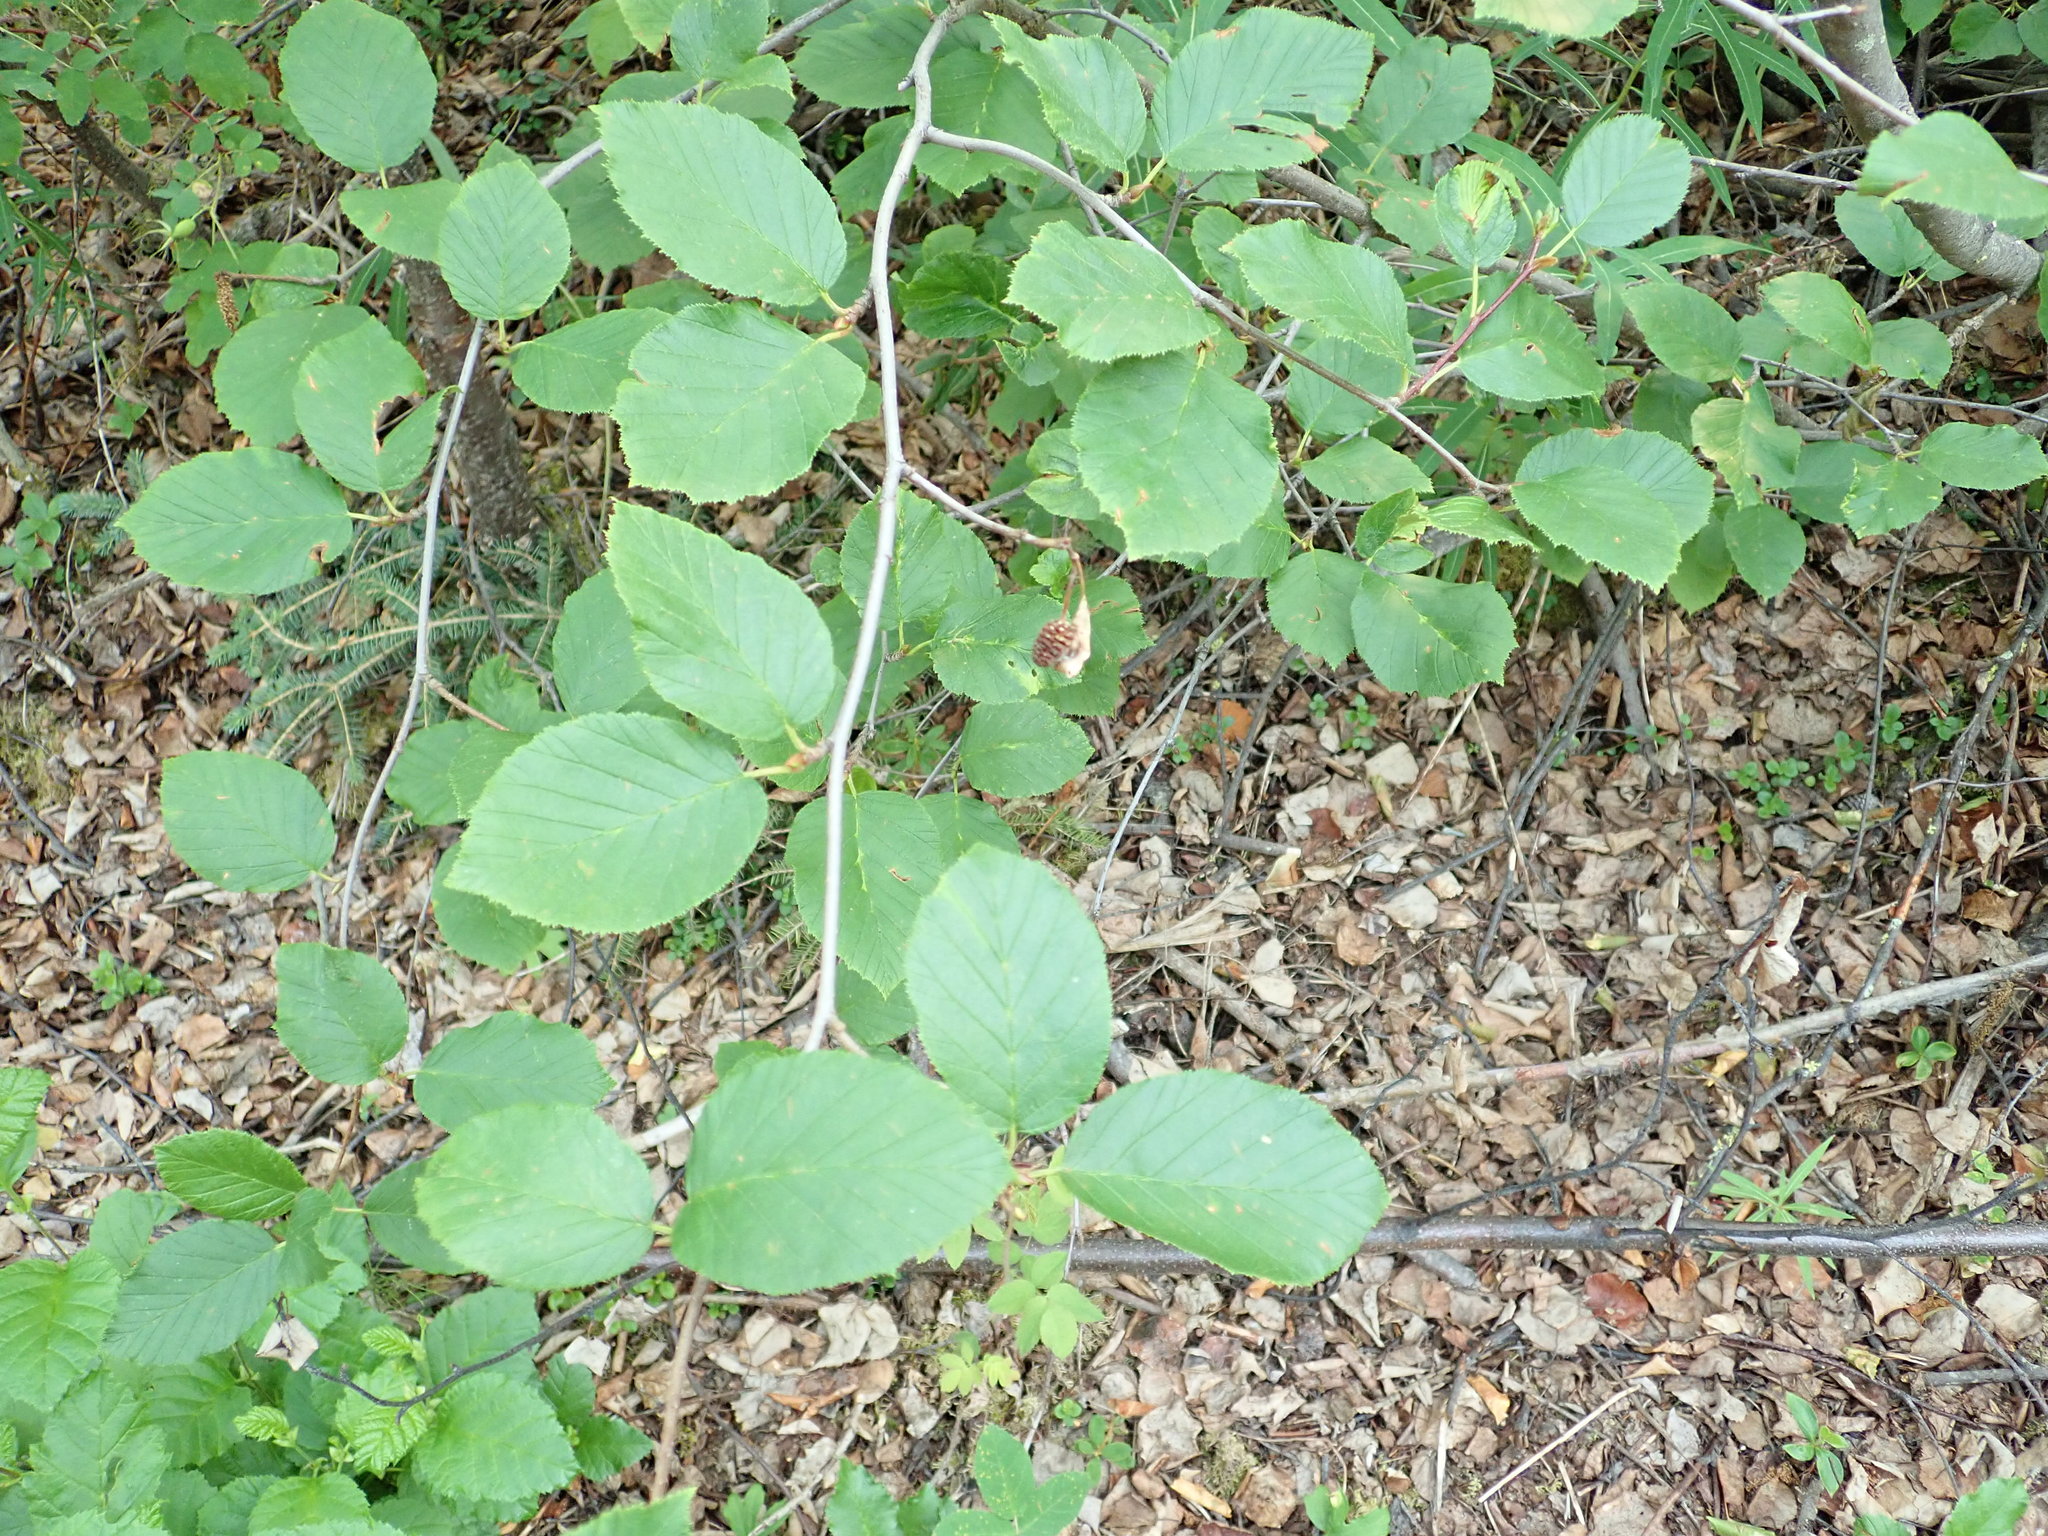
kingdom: Plantae
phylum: Tracheophyta
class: Magnoliopsida
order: Fagales
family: Betulaceae
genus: Alnus
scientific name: Alnus alnobetula
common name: Green alder
